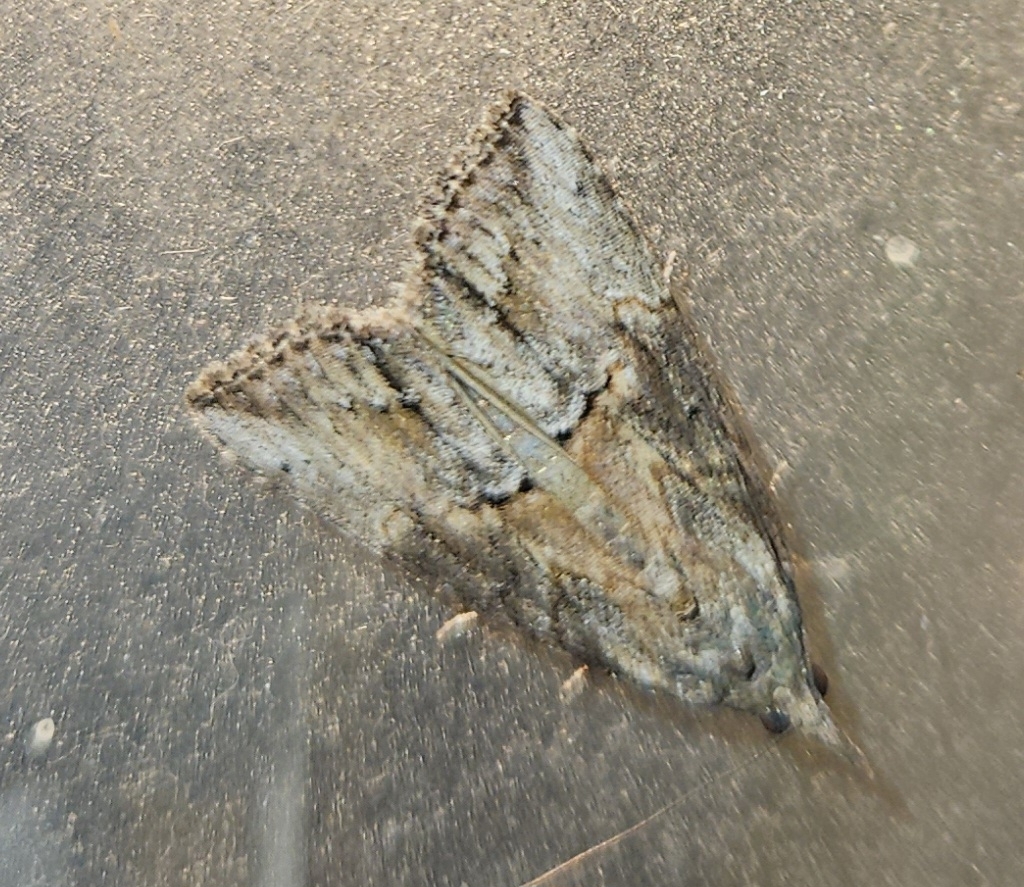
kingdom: Animalia
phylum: Arthropoda
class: Insecta
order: Lepidoptera
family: Erebidae
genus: Hypena
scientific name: Hypena scabra
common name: Green cloverworm
